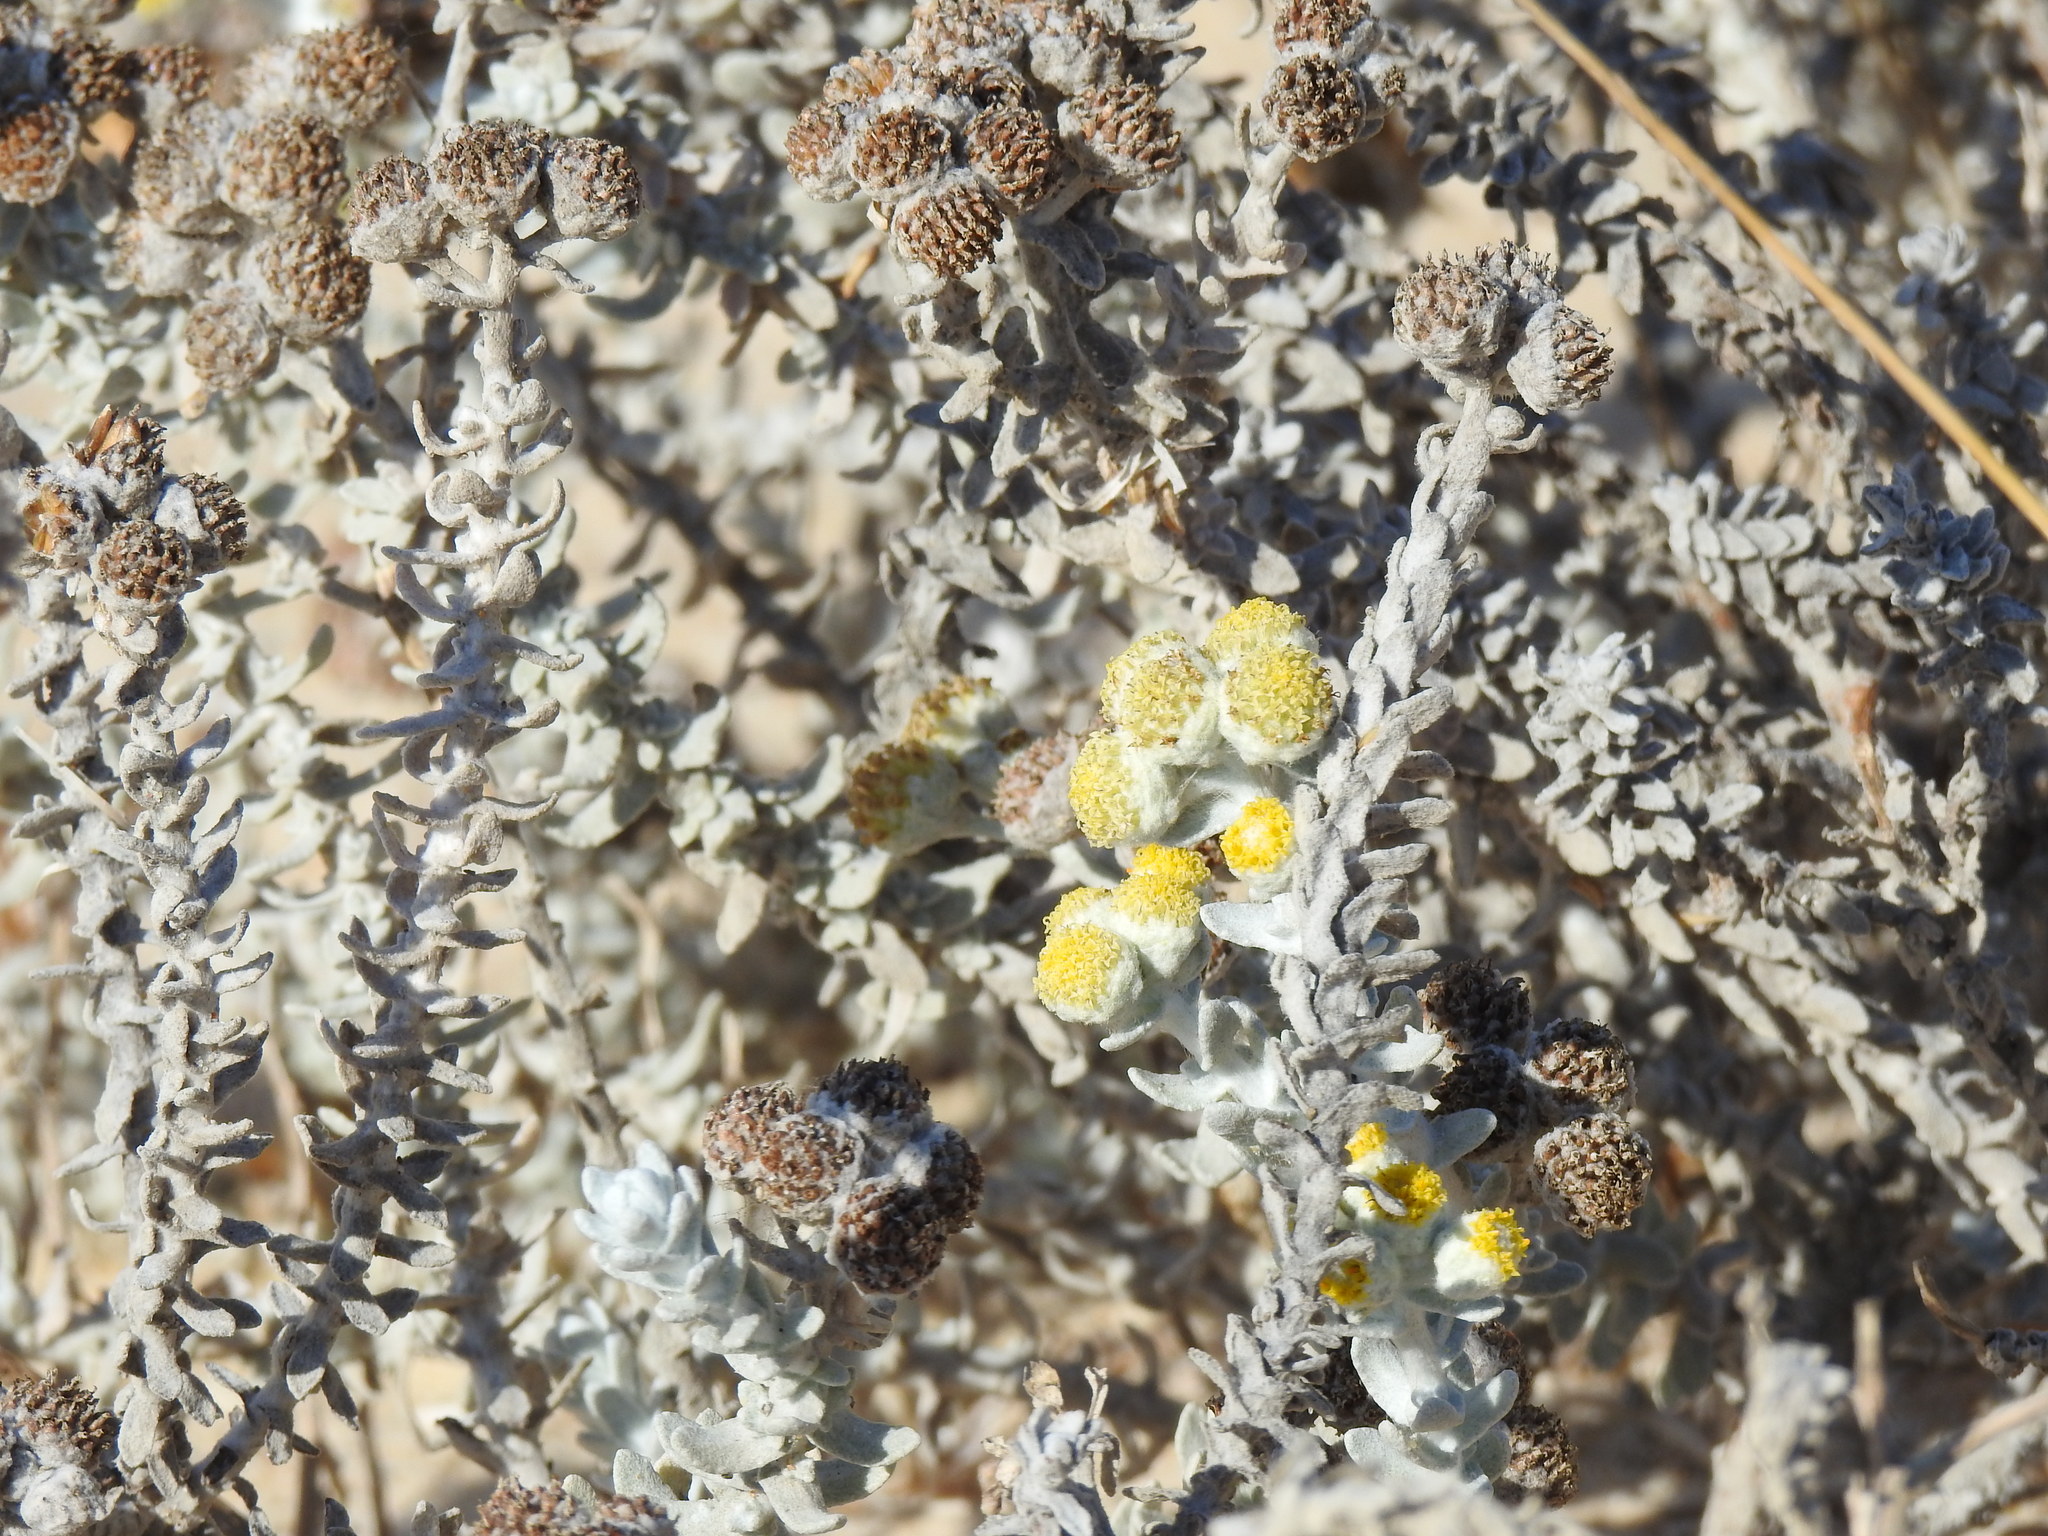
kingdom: Plantae
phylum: Tracheophyta
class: Magnoliopsida
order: Asterales
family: Asteraceae
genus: Achillea
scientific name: Achillea maritima
